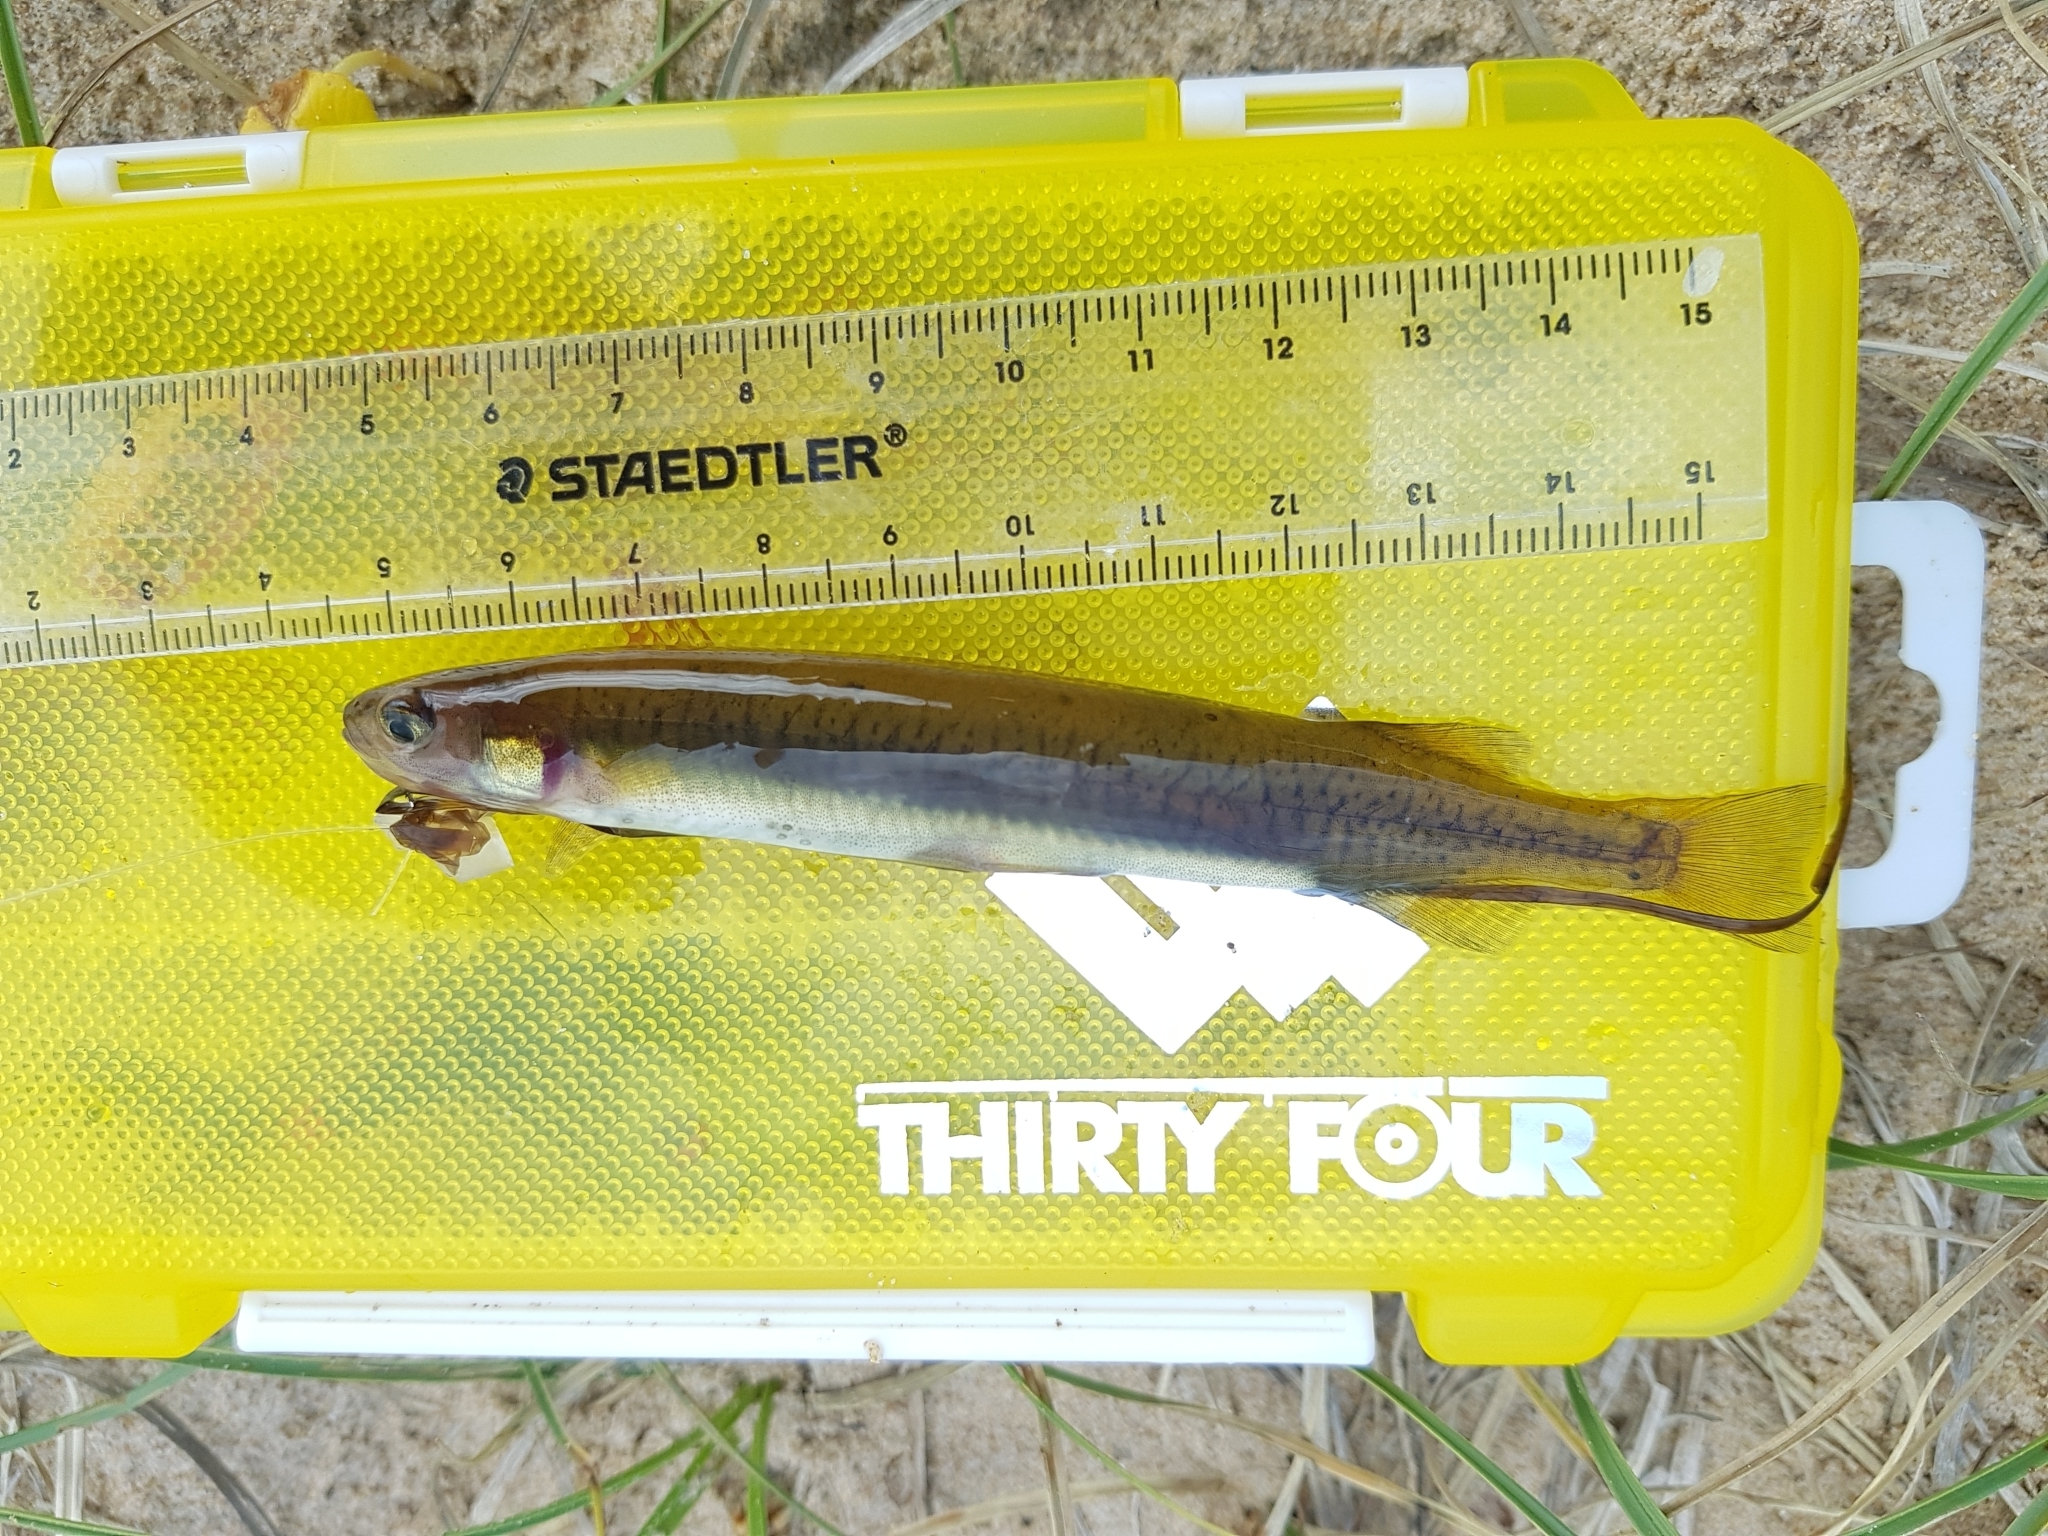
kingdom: Animalia
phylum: Chordata
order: Osmeriformes
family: Galaxiidae
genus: Galaxias
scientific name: Galaxias maculatus
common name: Common galaxias
